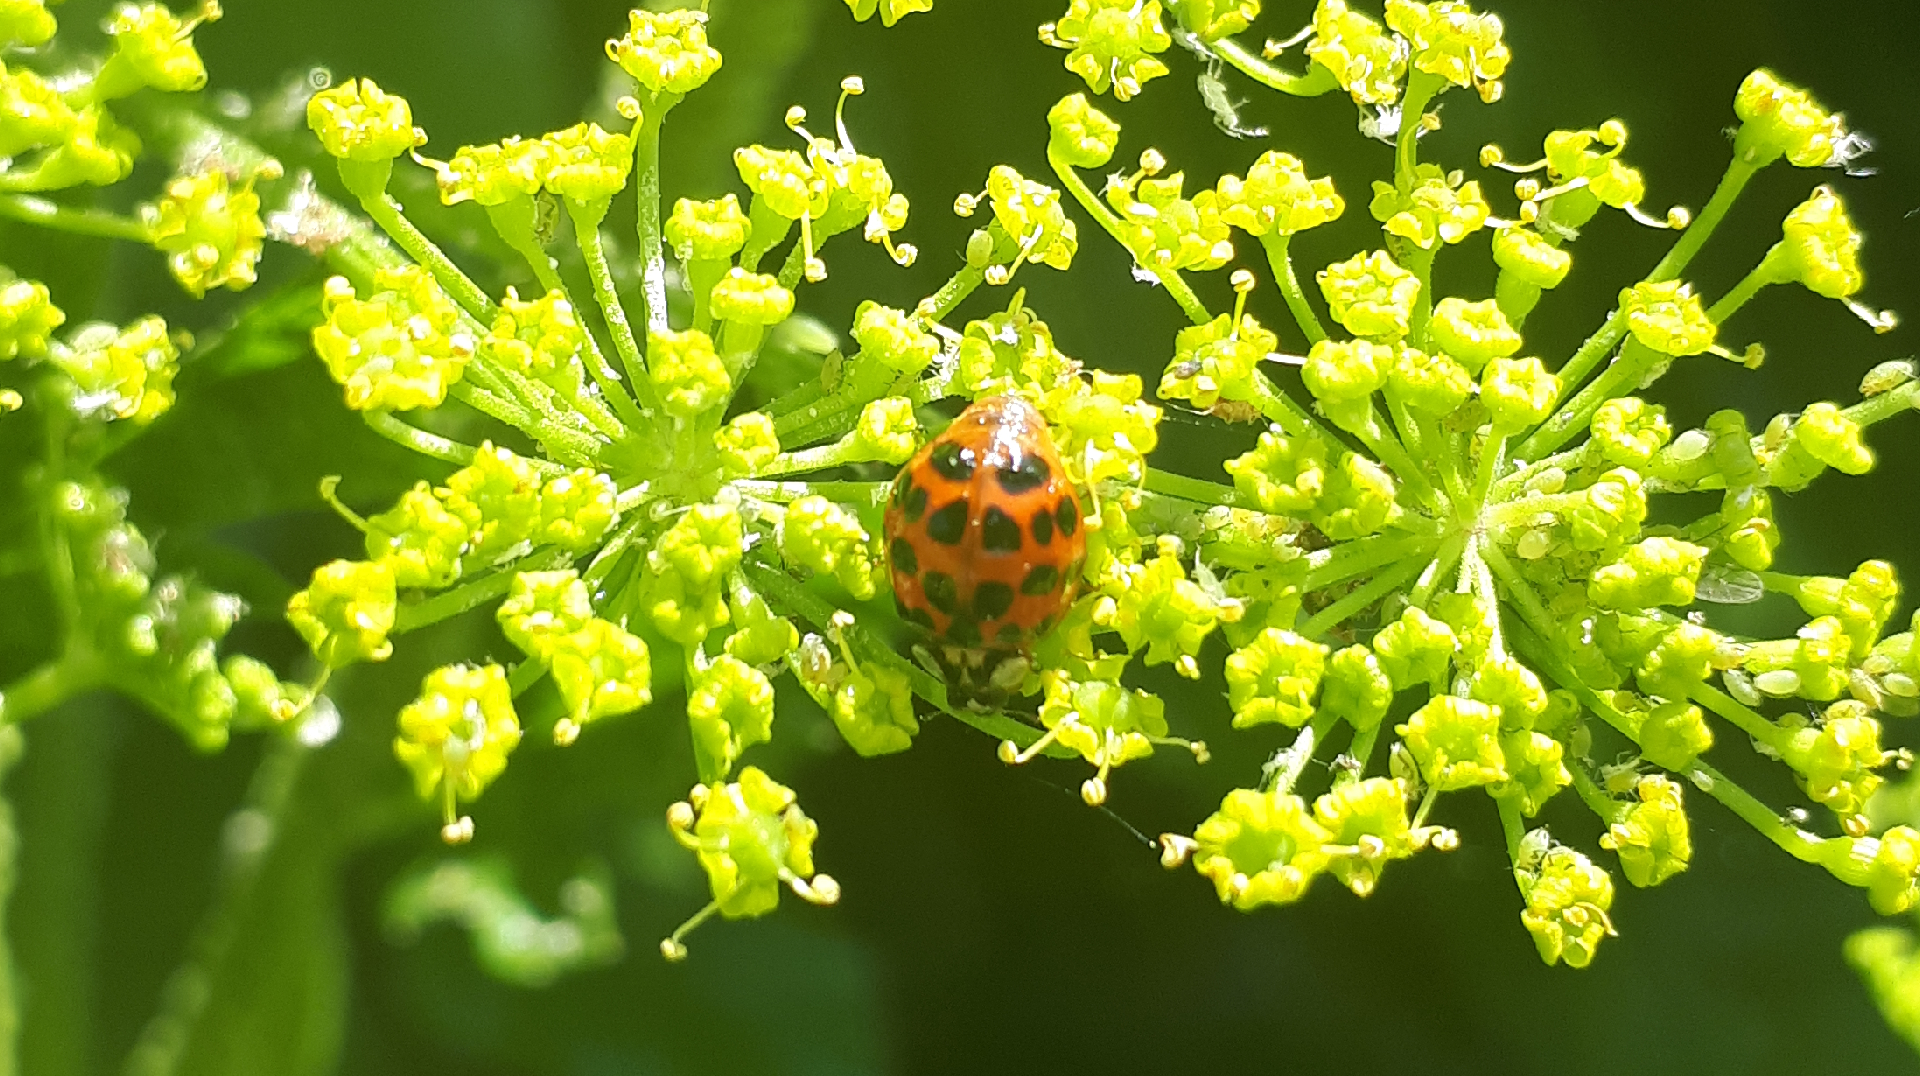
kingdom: Animalia
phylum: Arthropoda
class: Insecta
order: Coleoptera
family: Coccinellidae
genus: Harmonia
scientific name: Harmonia axyridis
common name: Harlequin ladybird
